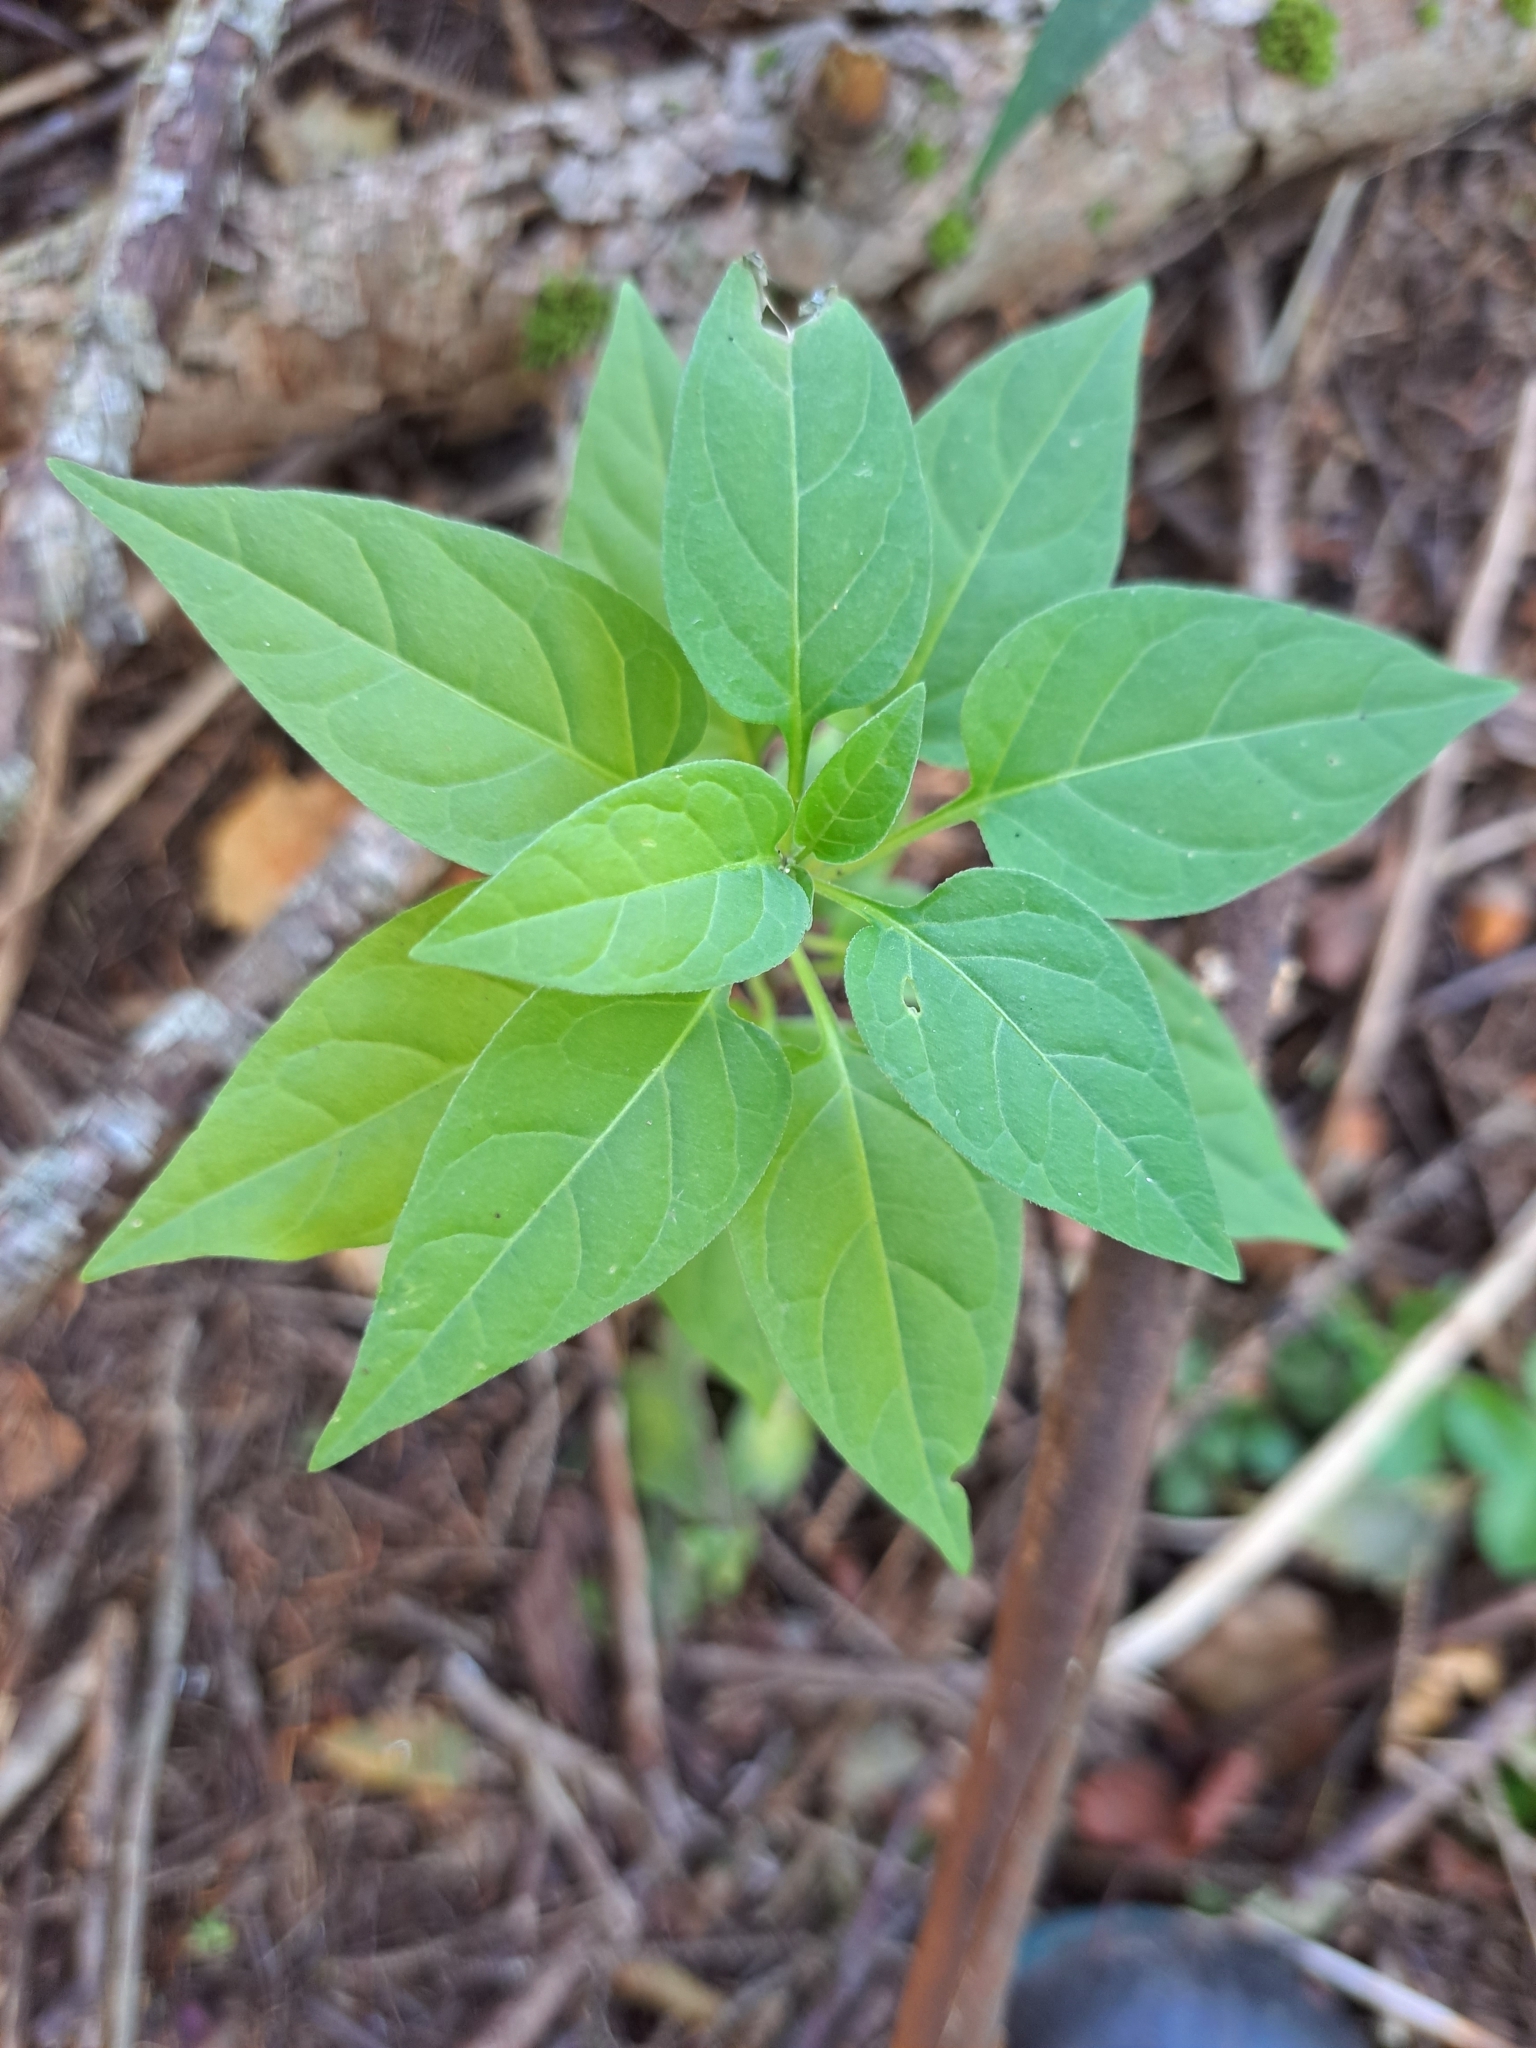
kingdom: Plantae
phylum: Tracheophyta
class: Magnoliopsida
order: Solanales
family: Solanaceae
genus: Solanum
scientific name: Solanum dulcamara
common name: Climbing nightshade
